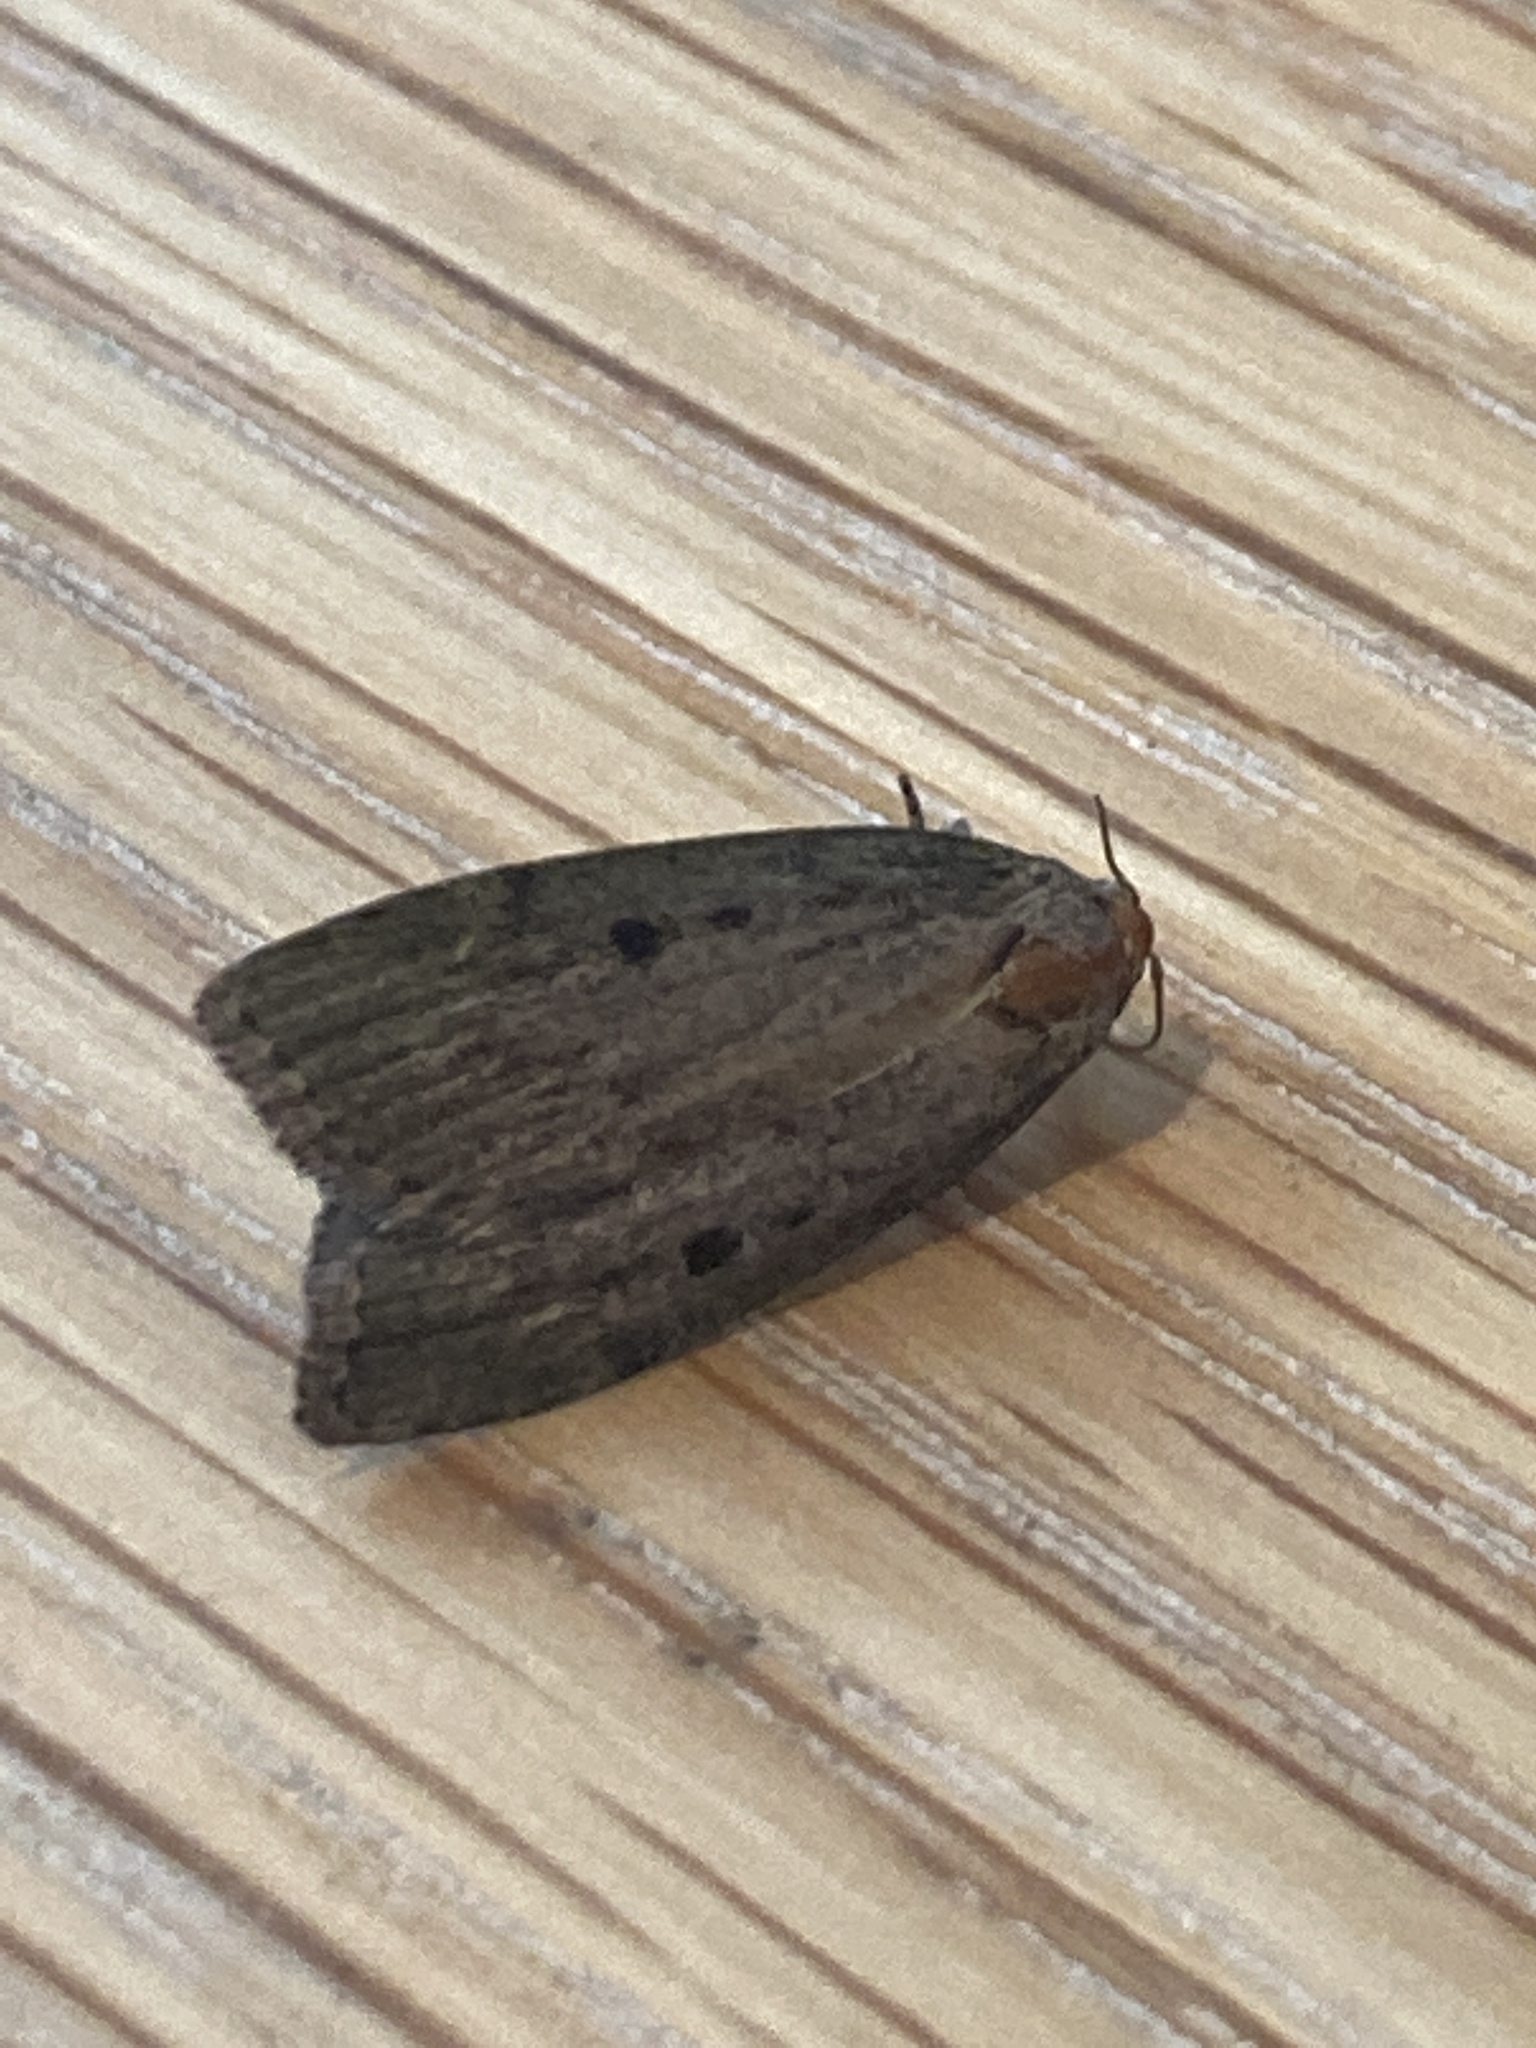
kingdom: Animalia
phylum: Arthropoda
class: Insecta
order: Lepidoptera
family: Pyralidae
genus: Aphomia
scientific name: Aphomia sociella
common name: Bee moth
